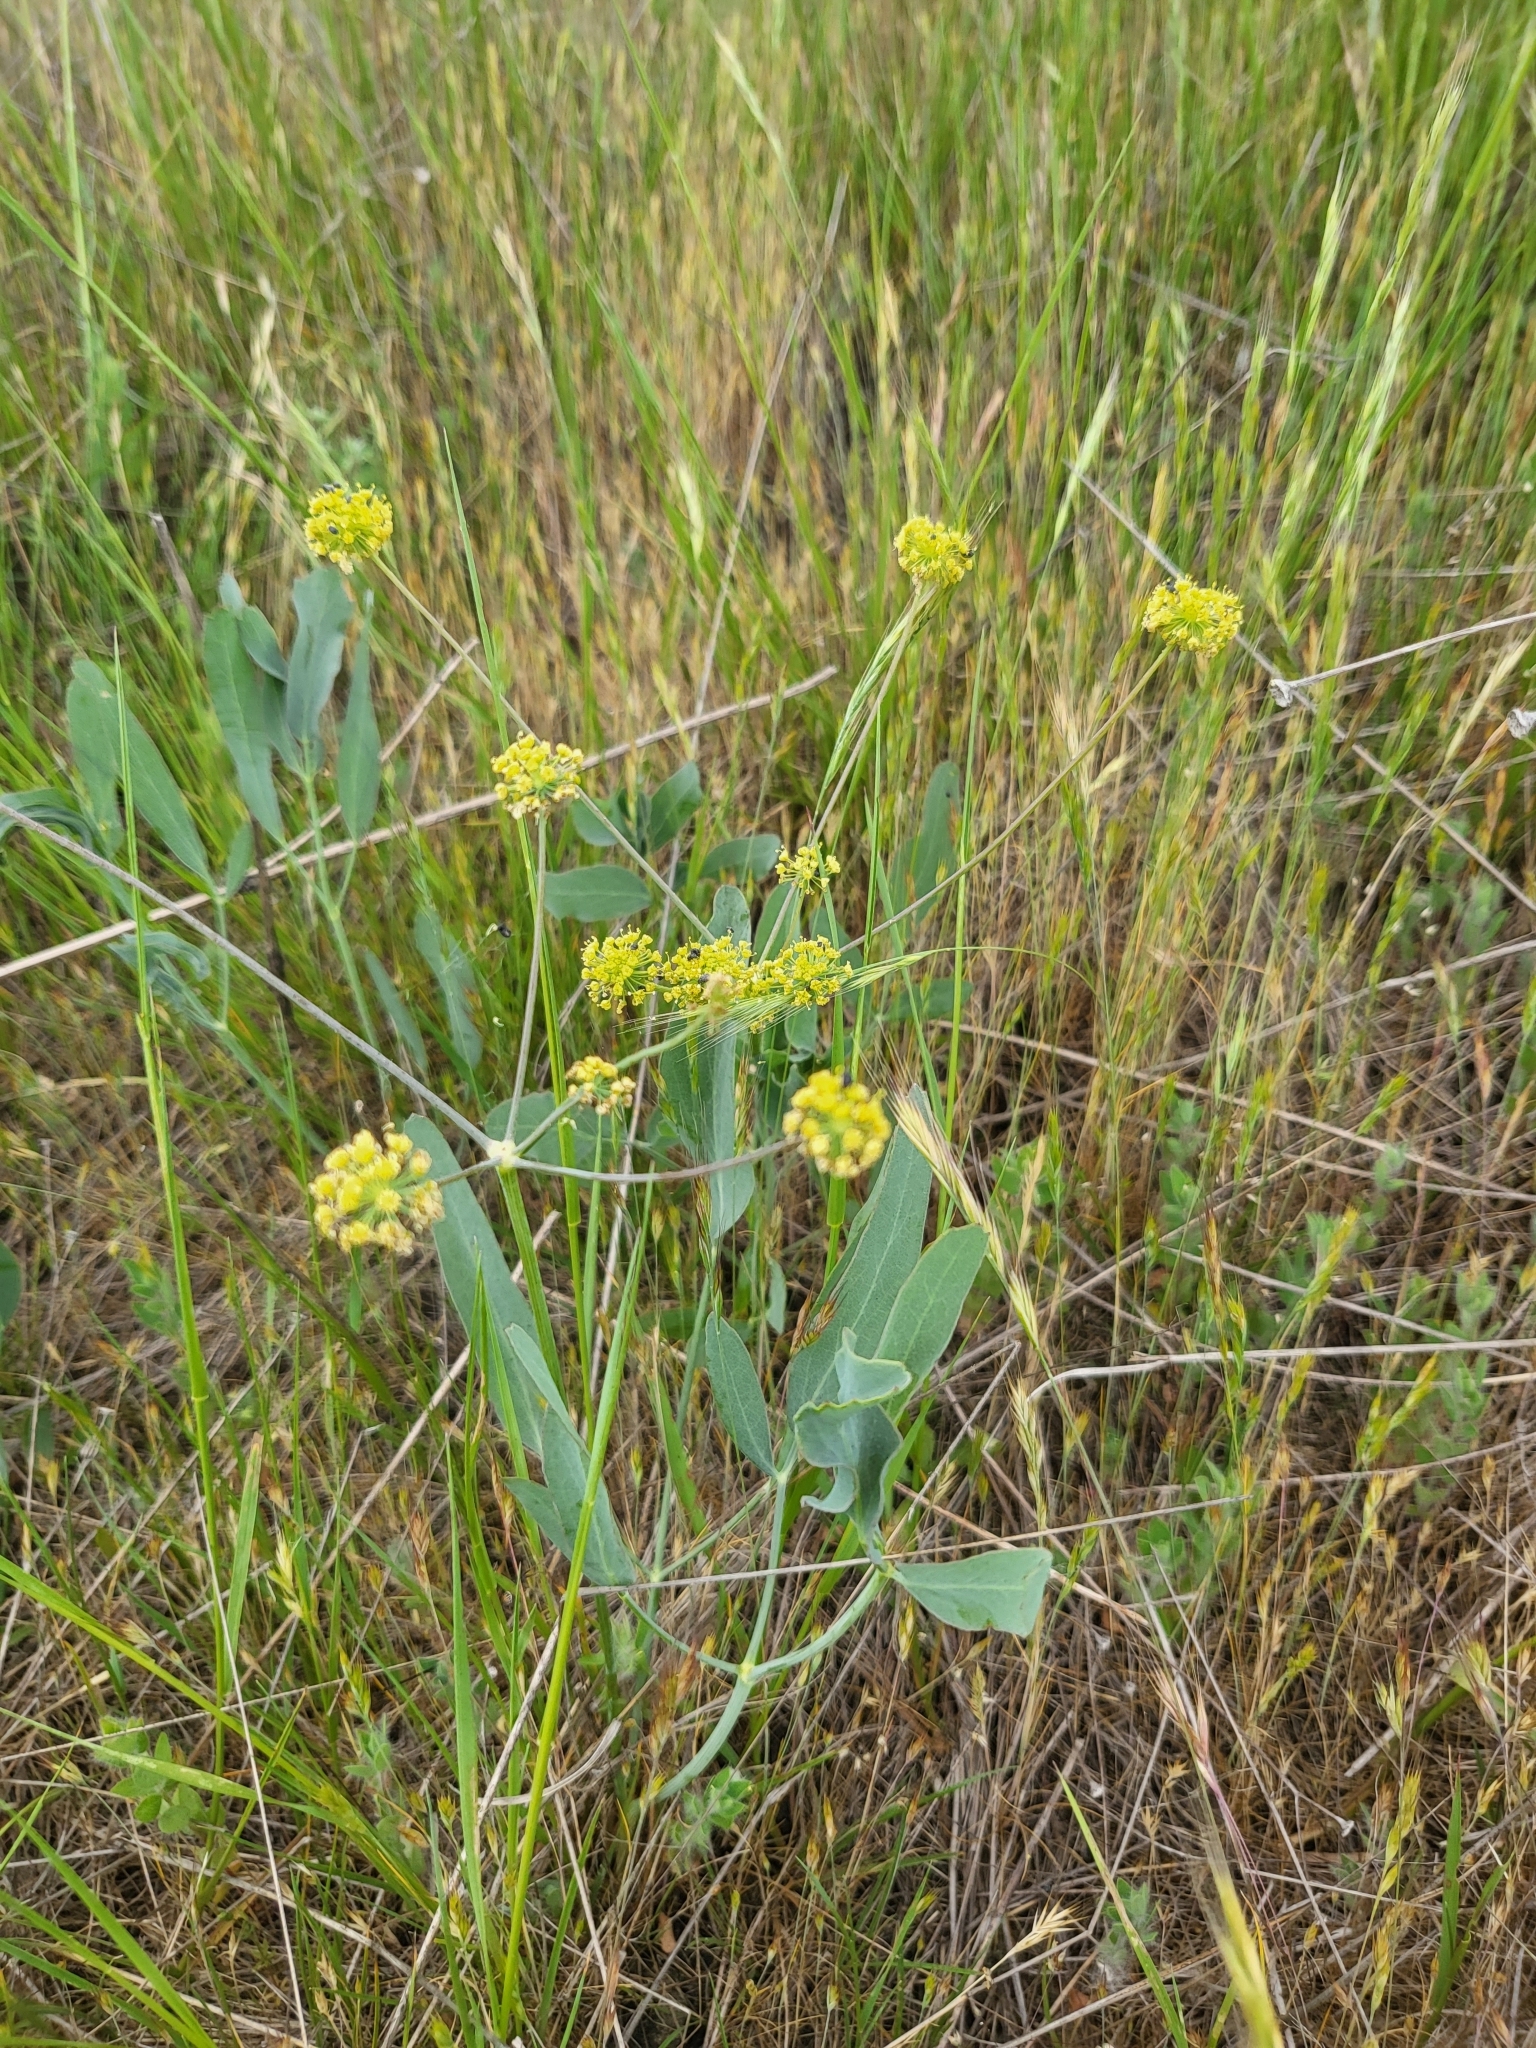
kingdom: Plantae
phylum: Tracheophyta
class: Magnoliopsida
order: Apiales
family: Apiaceae
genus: Lomatium
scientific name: Lomatium nudicaule
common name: Pestle lomatium
